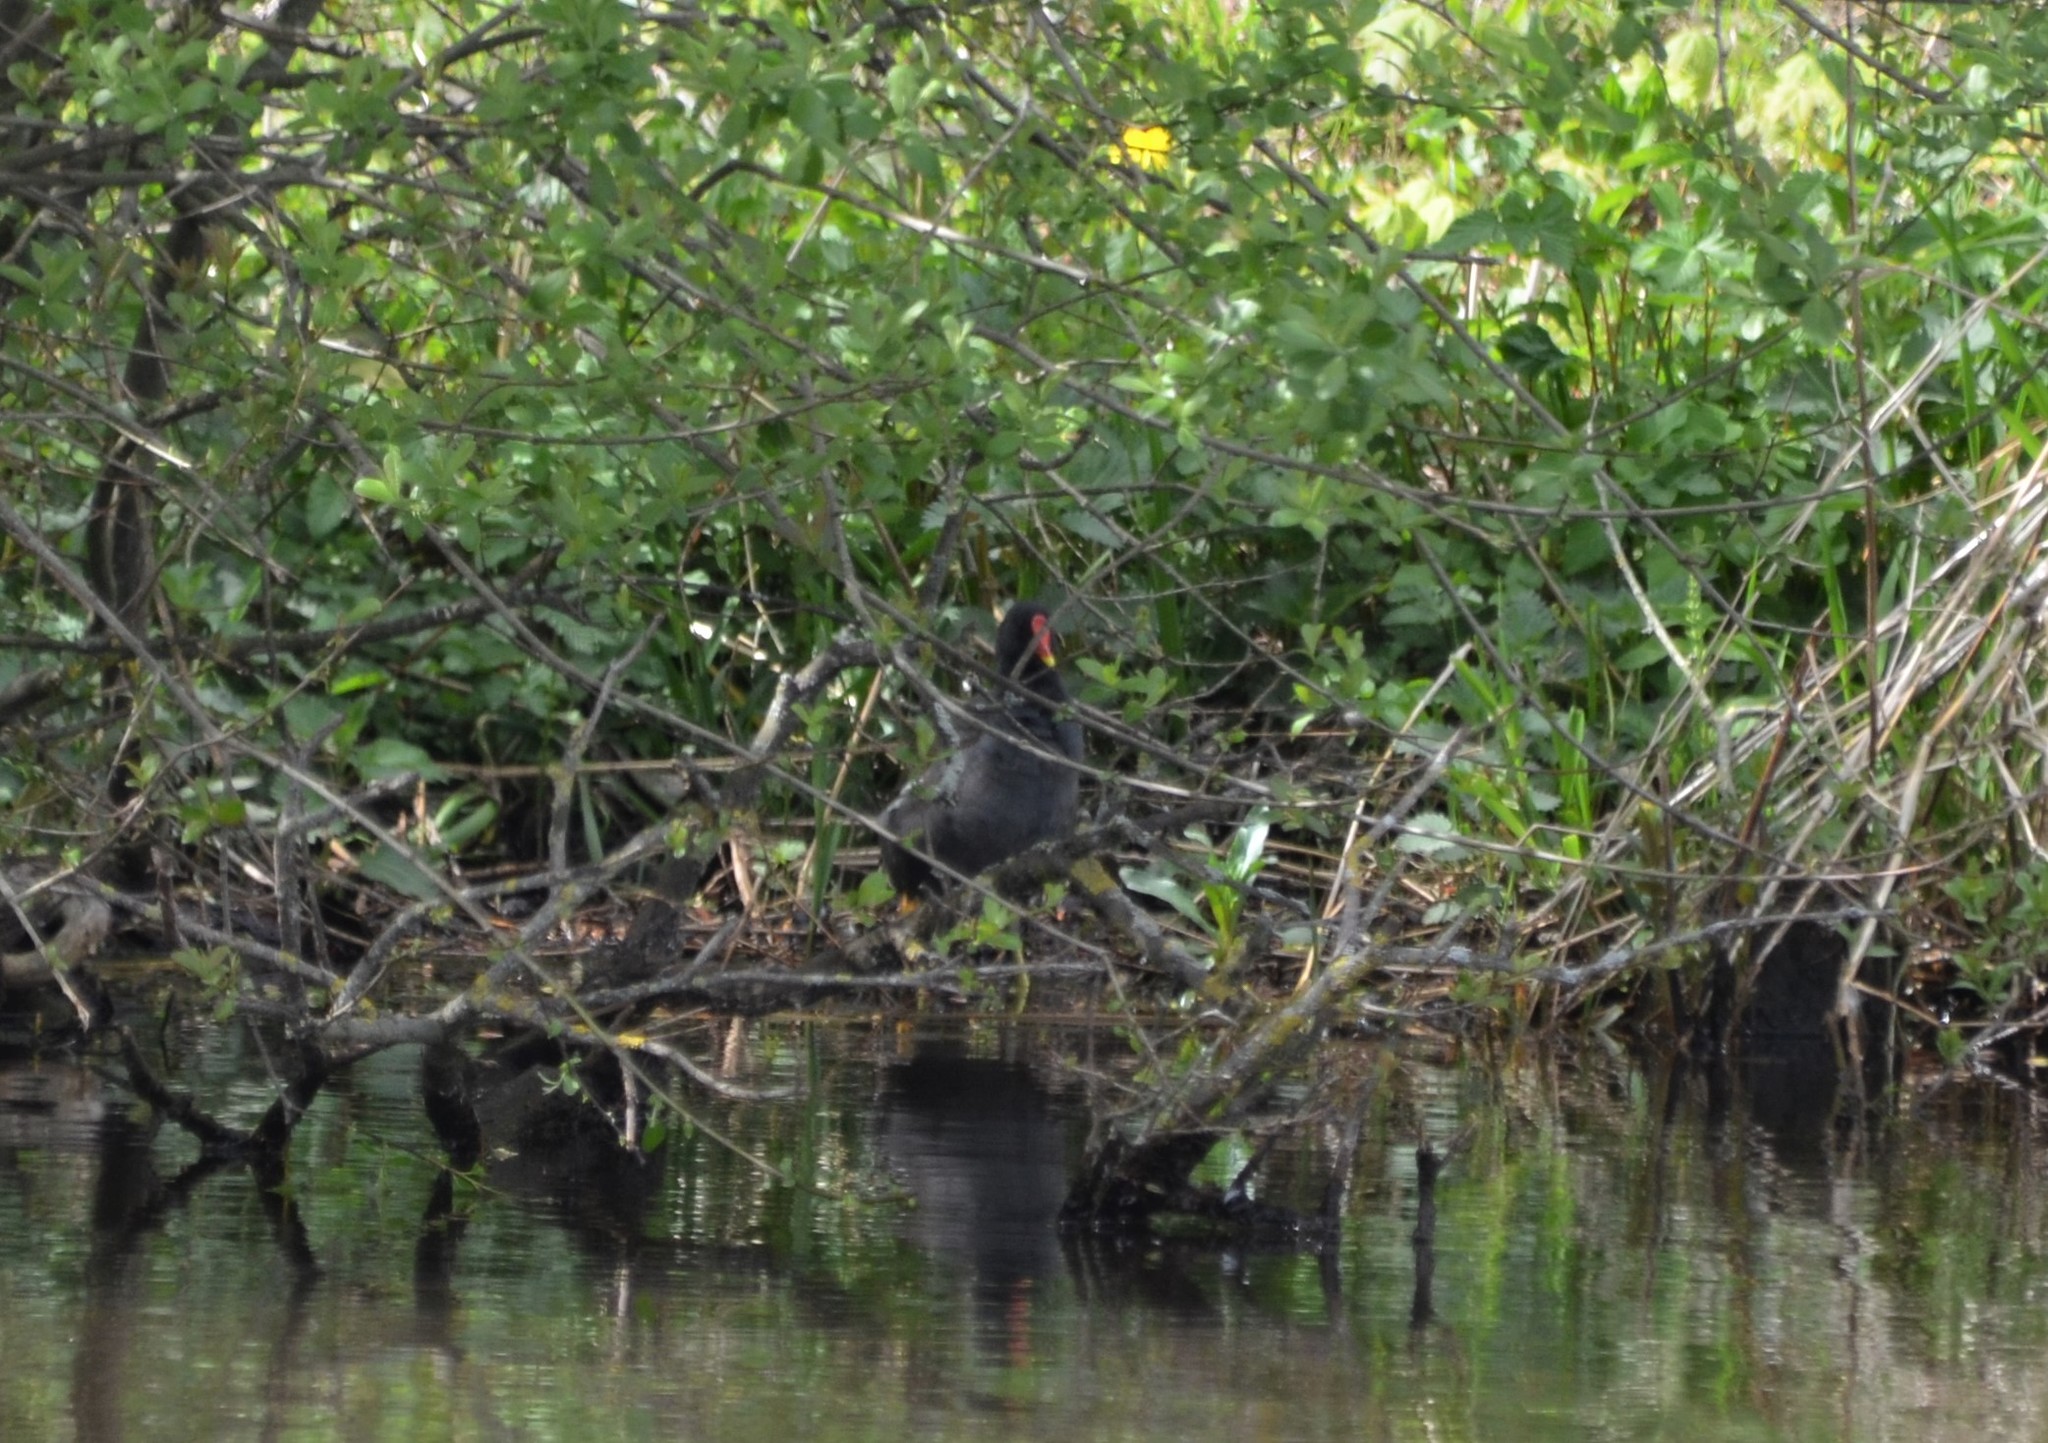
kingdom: Animalia
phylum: Chordata
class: Aves
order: Gruiformes
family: Rallidae
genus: Gallinula
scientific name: Gallinula chloropus
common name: Common moorhen
